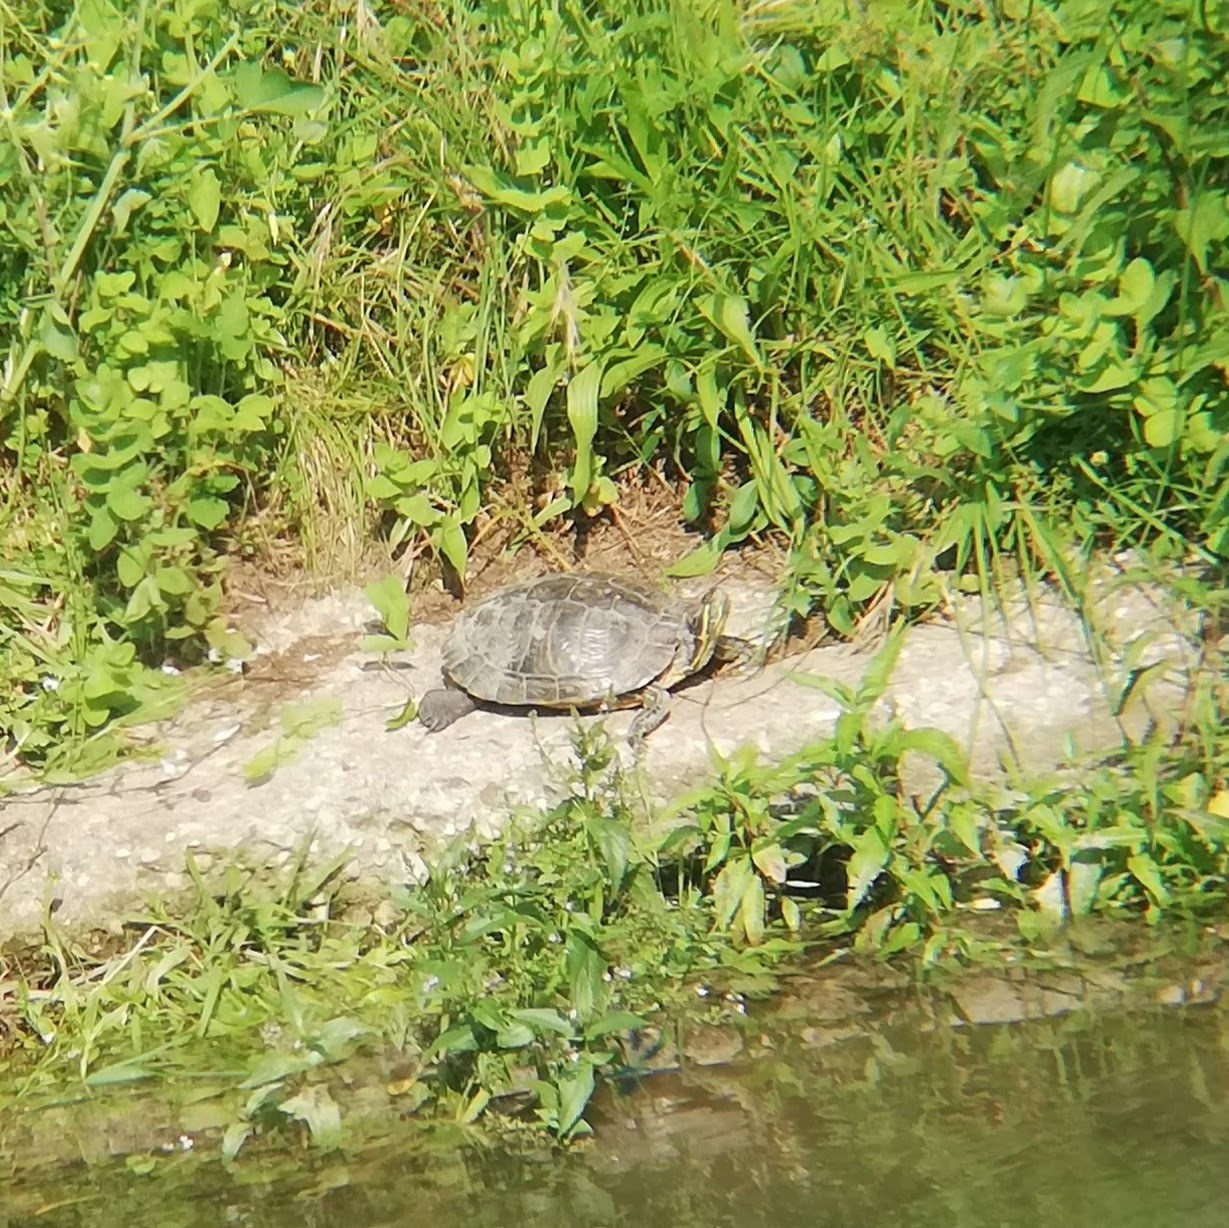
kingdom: Animalia
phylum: Chordata
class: Testudines
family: Emydidae
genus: Trachemys
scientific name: Trachemys scripta
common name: Slider
